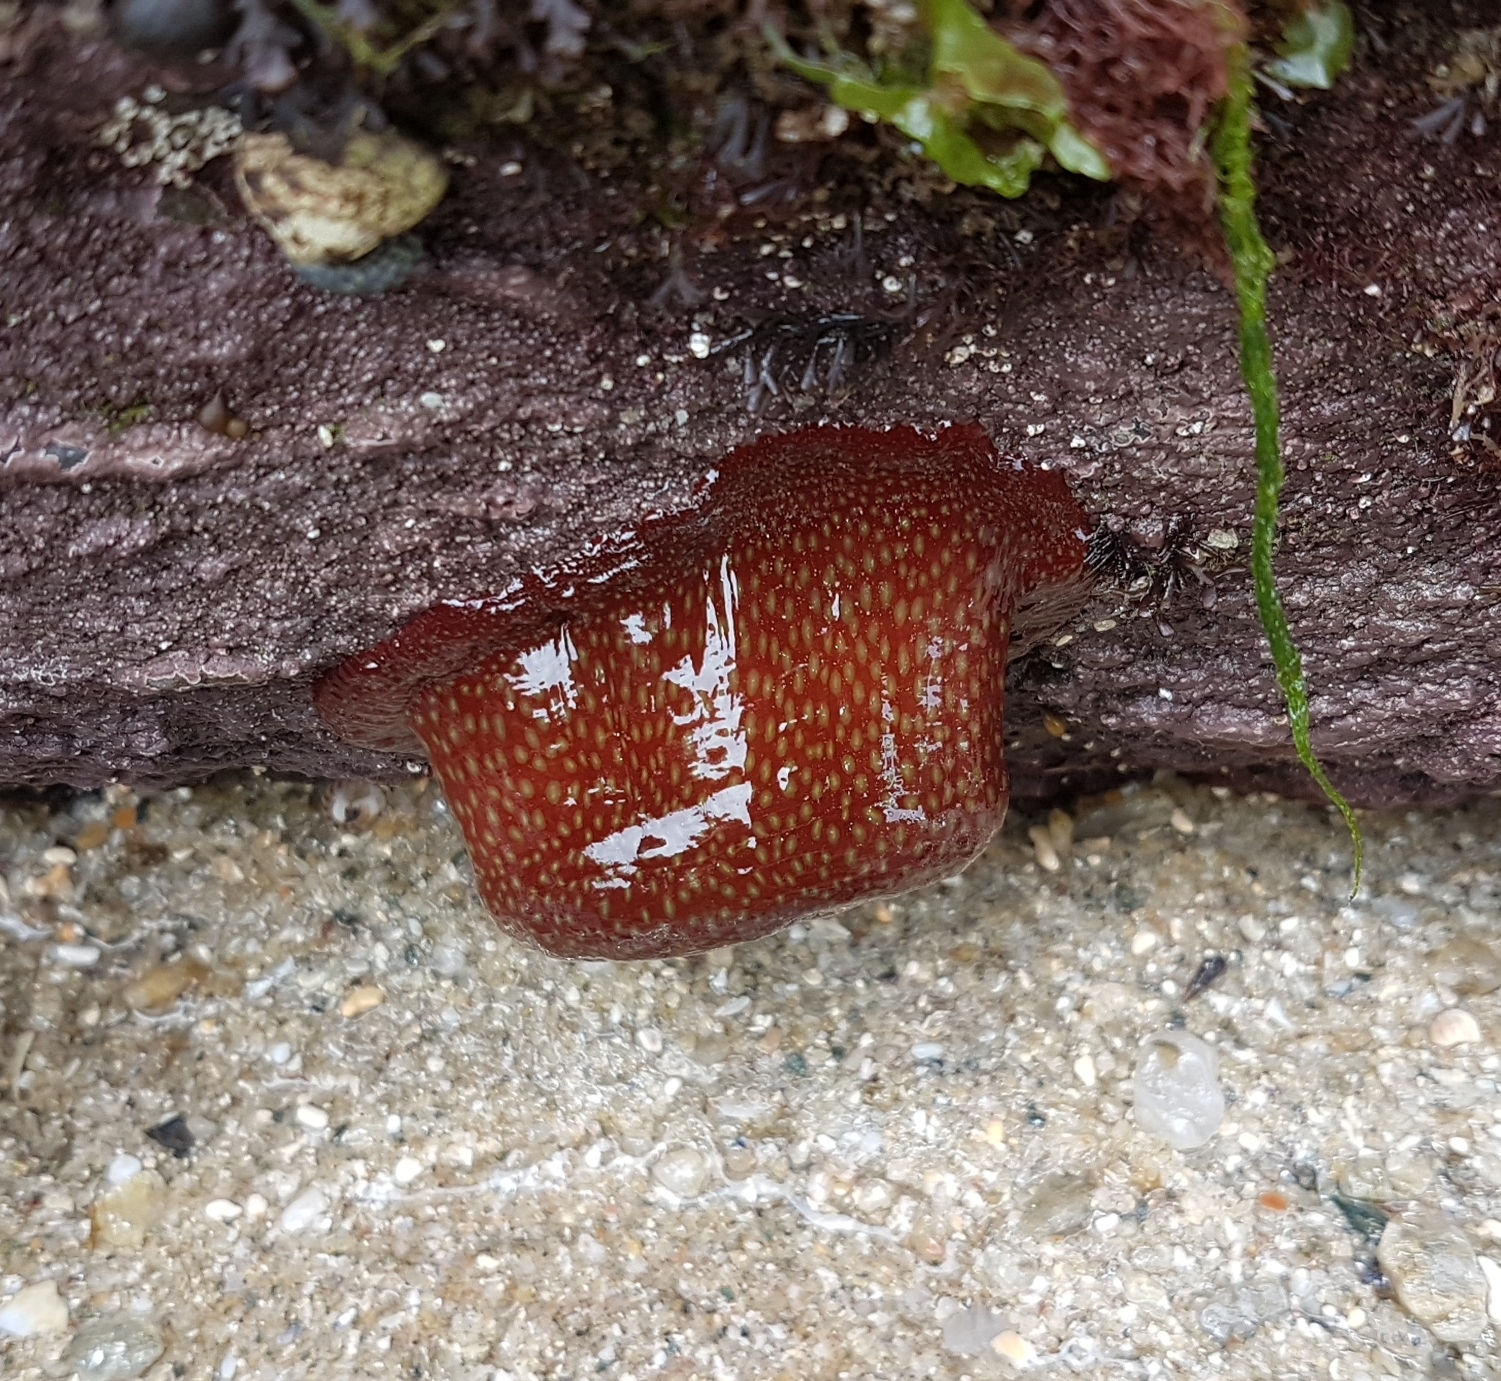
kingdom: Animalia
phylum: Cnidaria
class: Anthozoa
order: Actiniaria
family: Actiniidae
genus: Actinia
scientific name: Actinia fragacea
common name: Strawberry anemone
